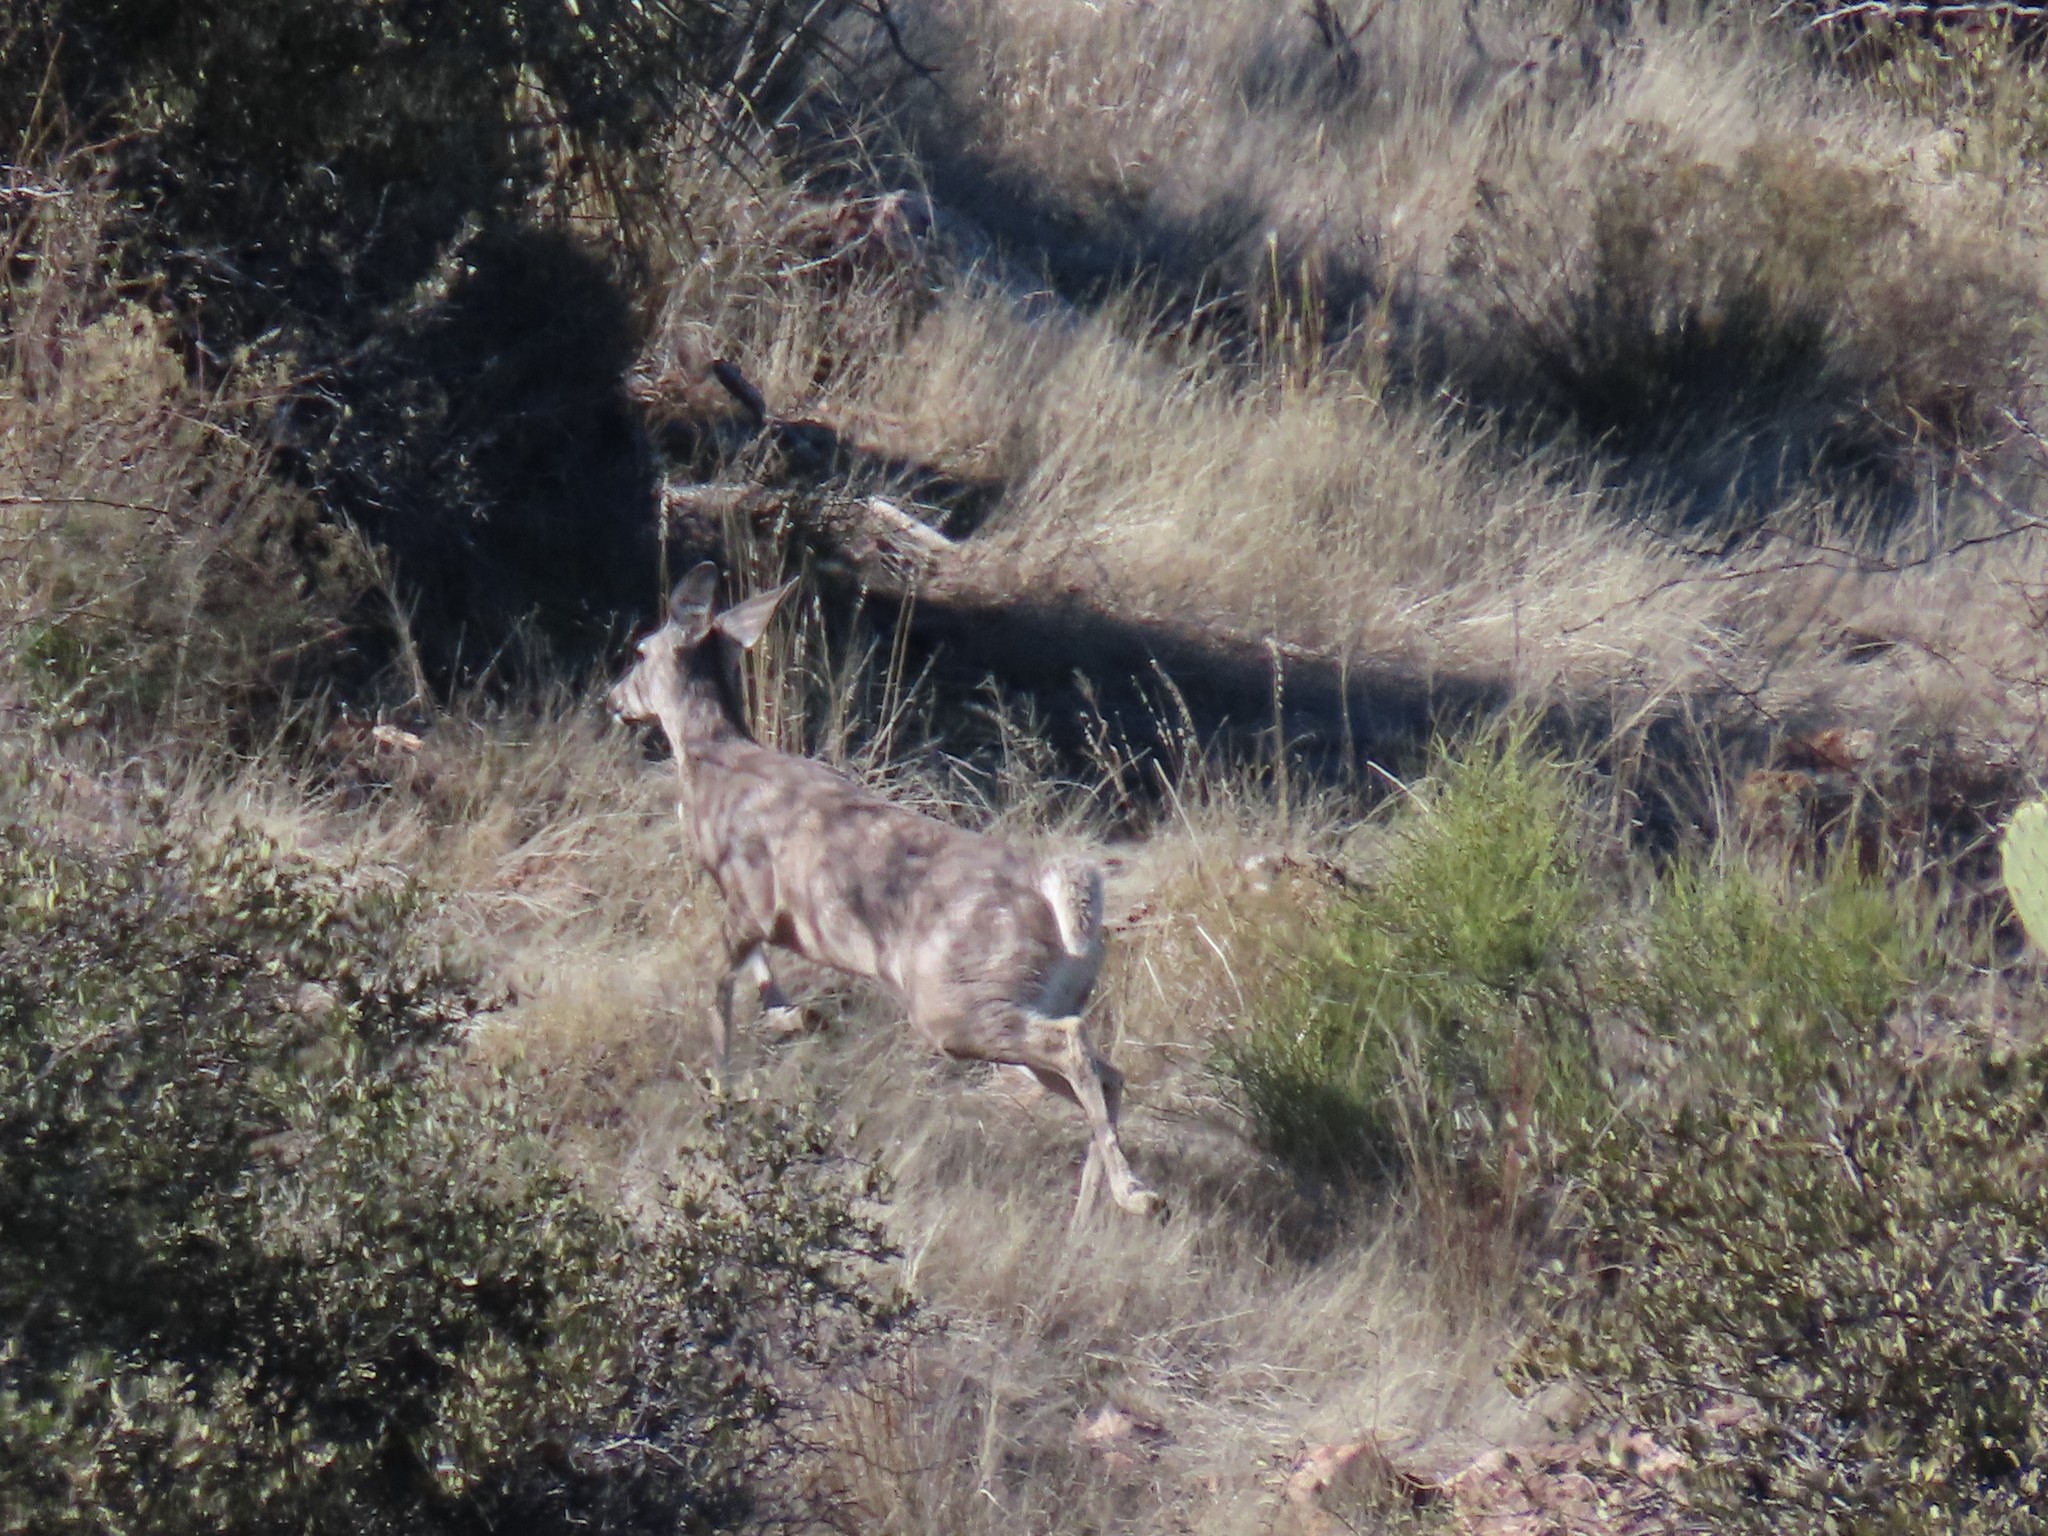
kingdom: Animalia
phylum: Chordata
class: Mammalia
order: Artiodactyla
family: Cervidae
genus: Odocoileus
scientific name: Odocoileus virginianus
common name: White-tailed deer
